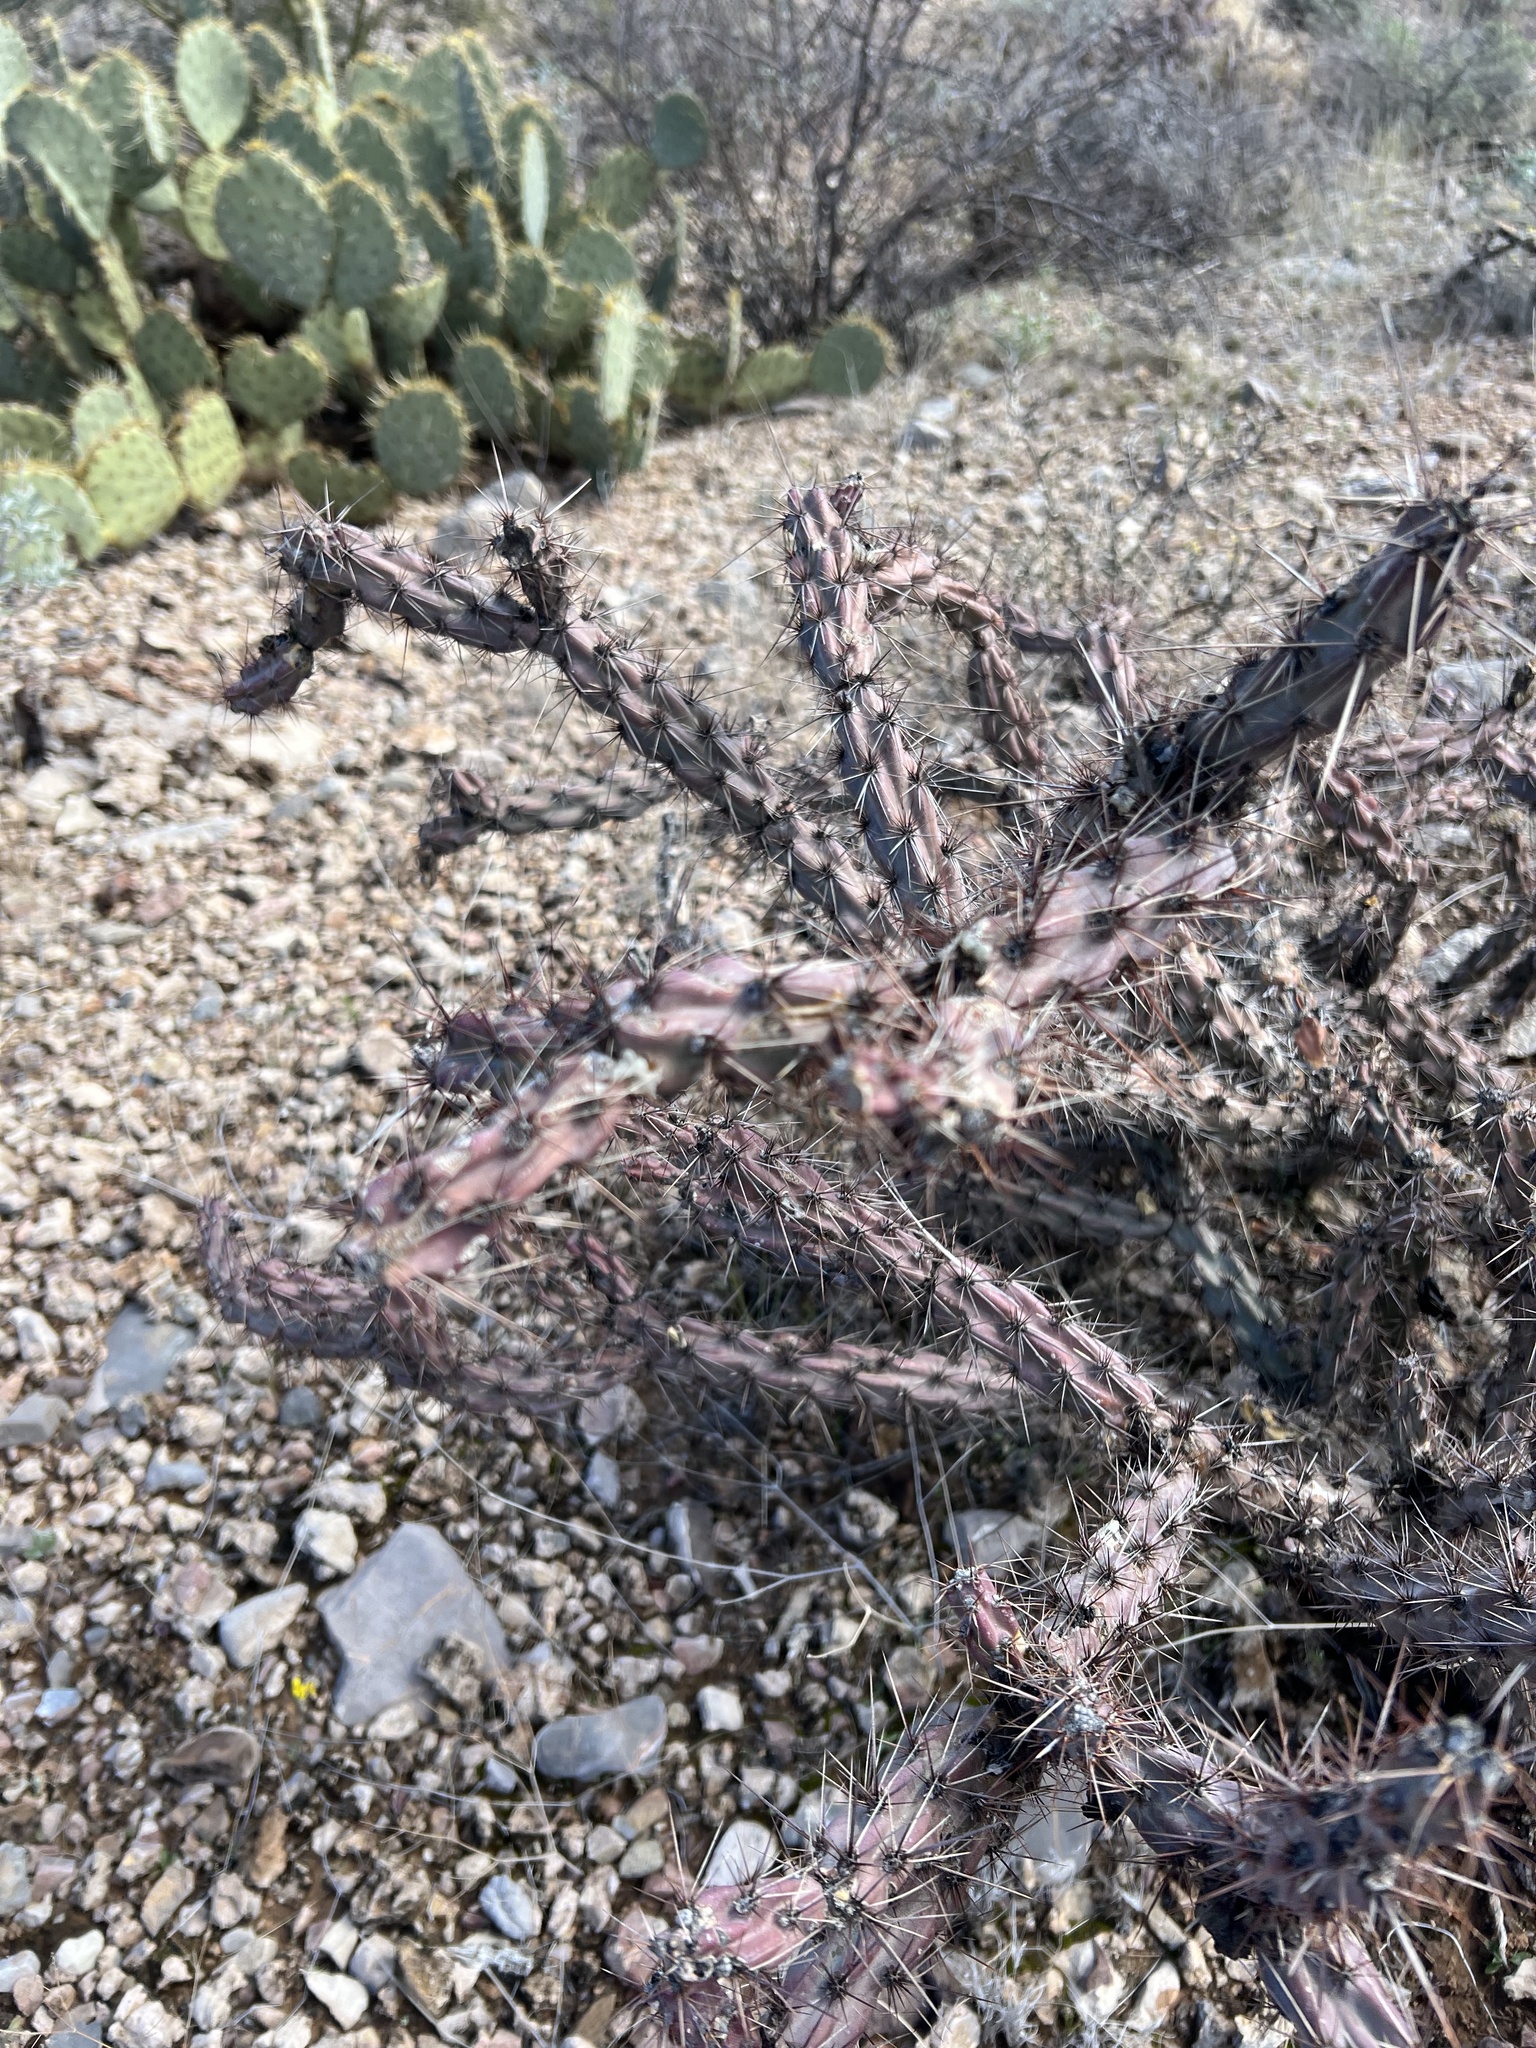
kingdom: Plantae
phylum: Tracheophyta
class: Magnoliopsida
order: Caryophyllales
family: Cactaceae
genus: Cylindropuntia
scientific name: Cylindropuntia acanthocarpa
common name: Buckhorn cholla
